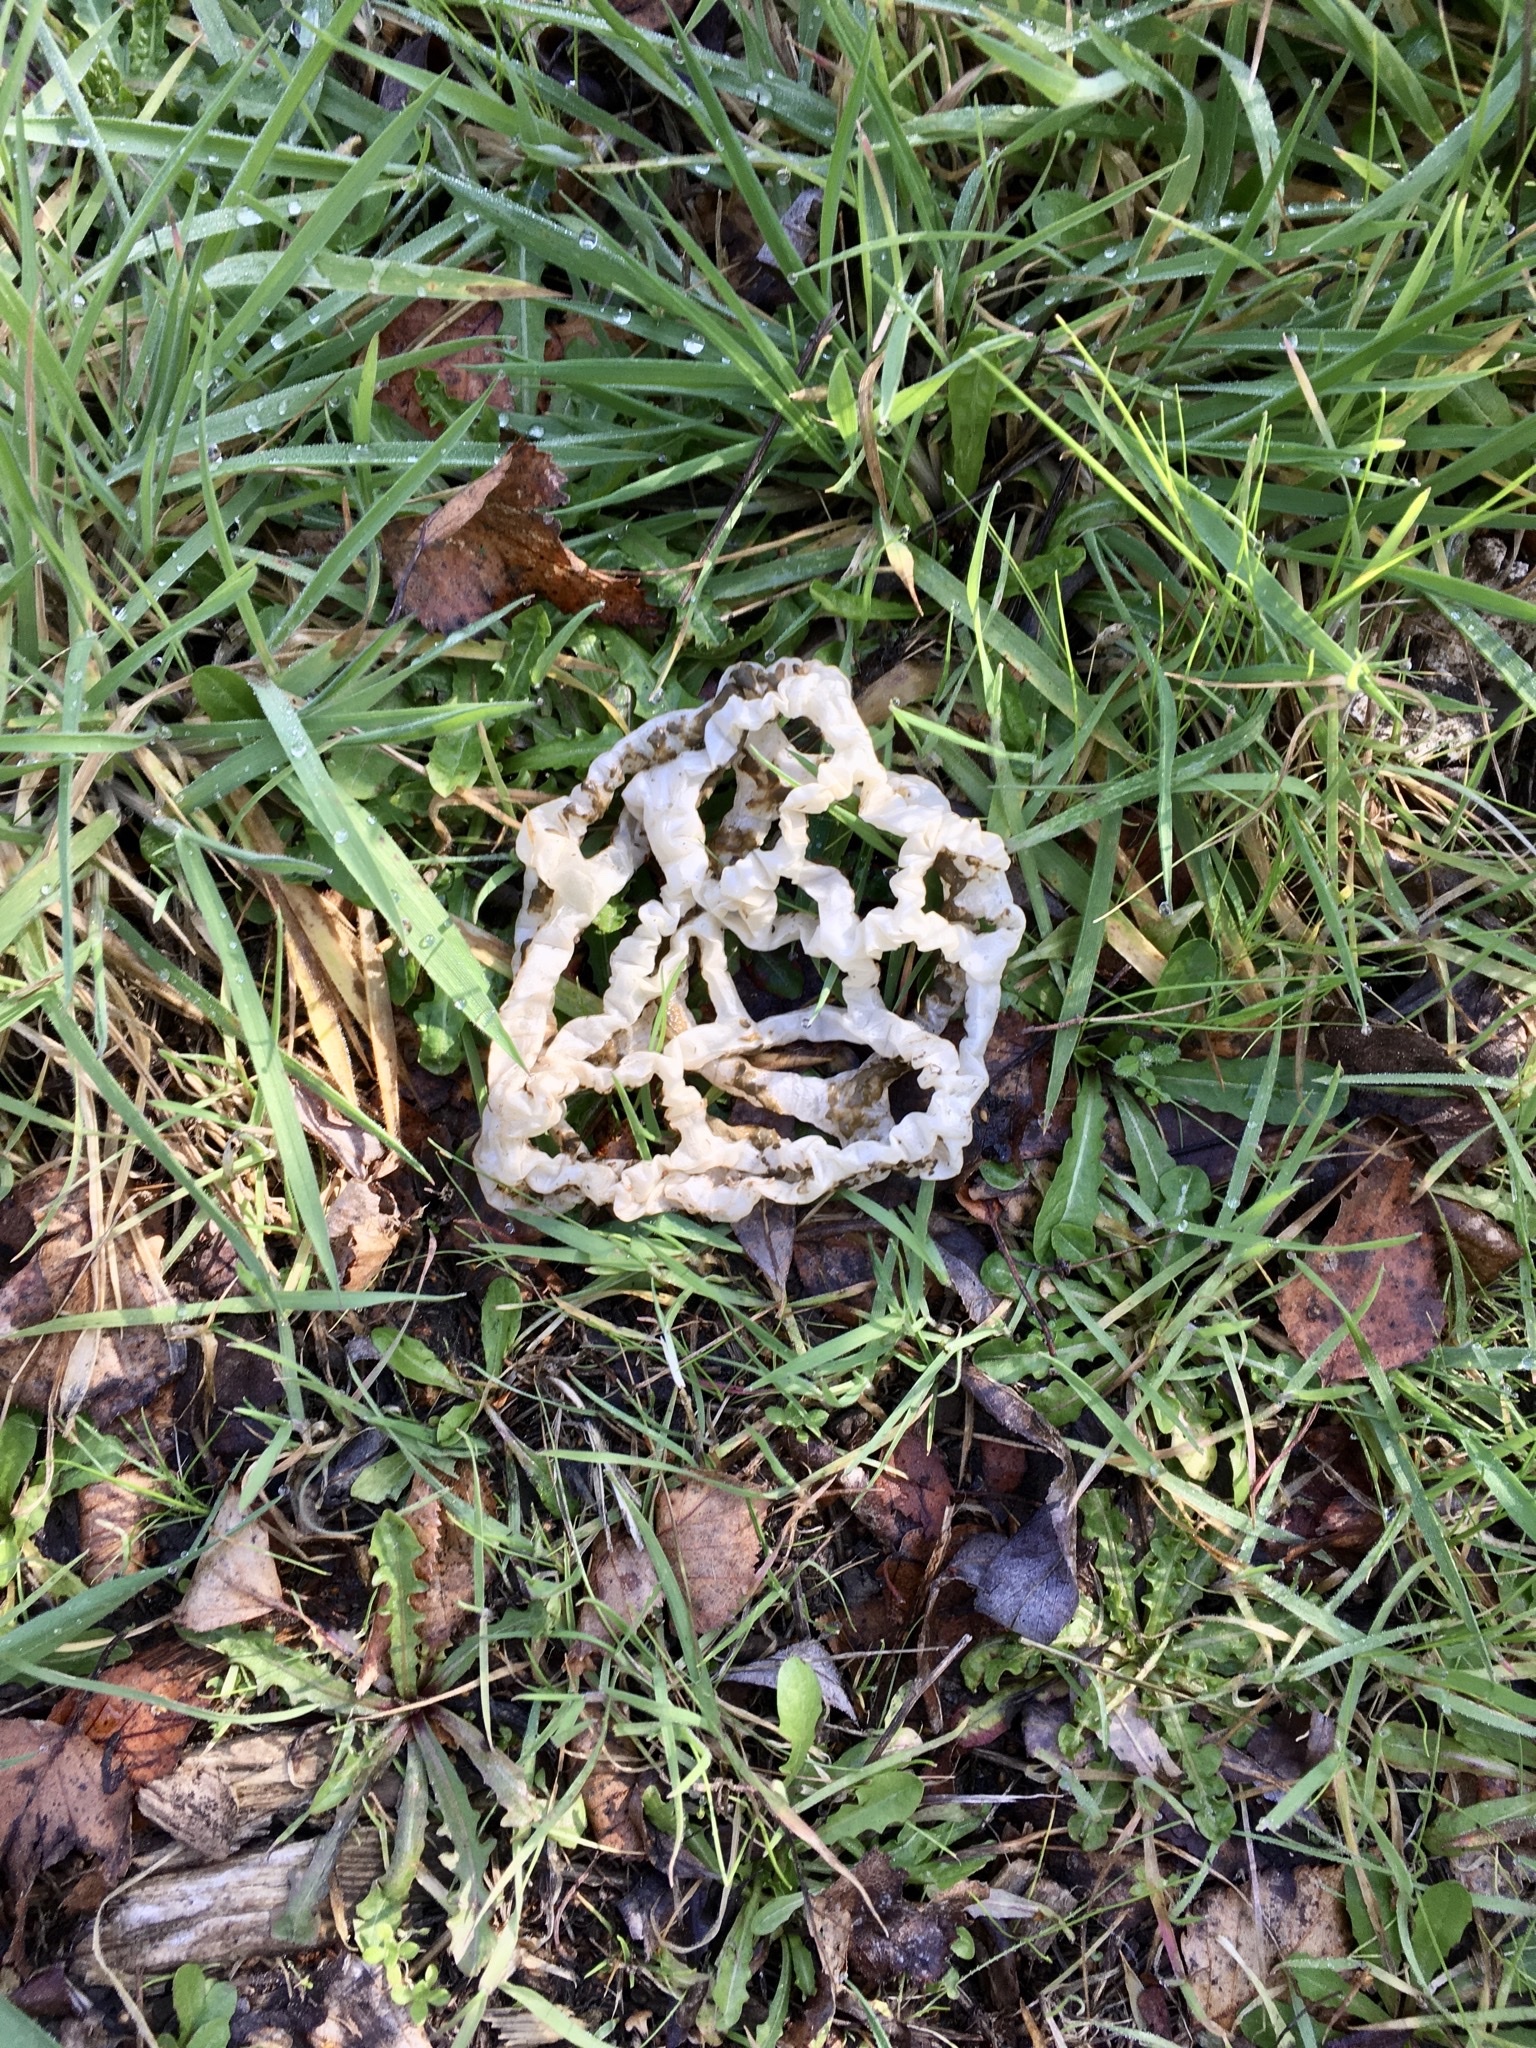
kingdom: Fungi
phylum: Basidiomycota
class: Agaricomycetes
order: Phallales
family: Phallaceae
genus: Ileodictyon
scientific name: Ileodictyon cibarium
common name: Basket fungus
